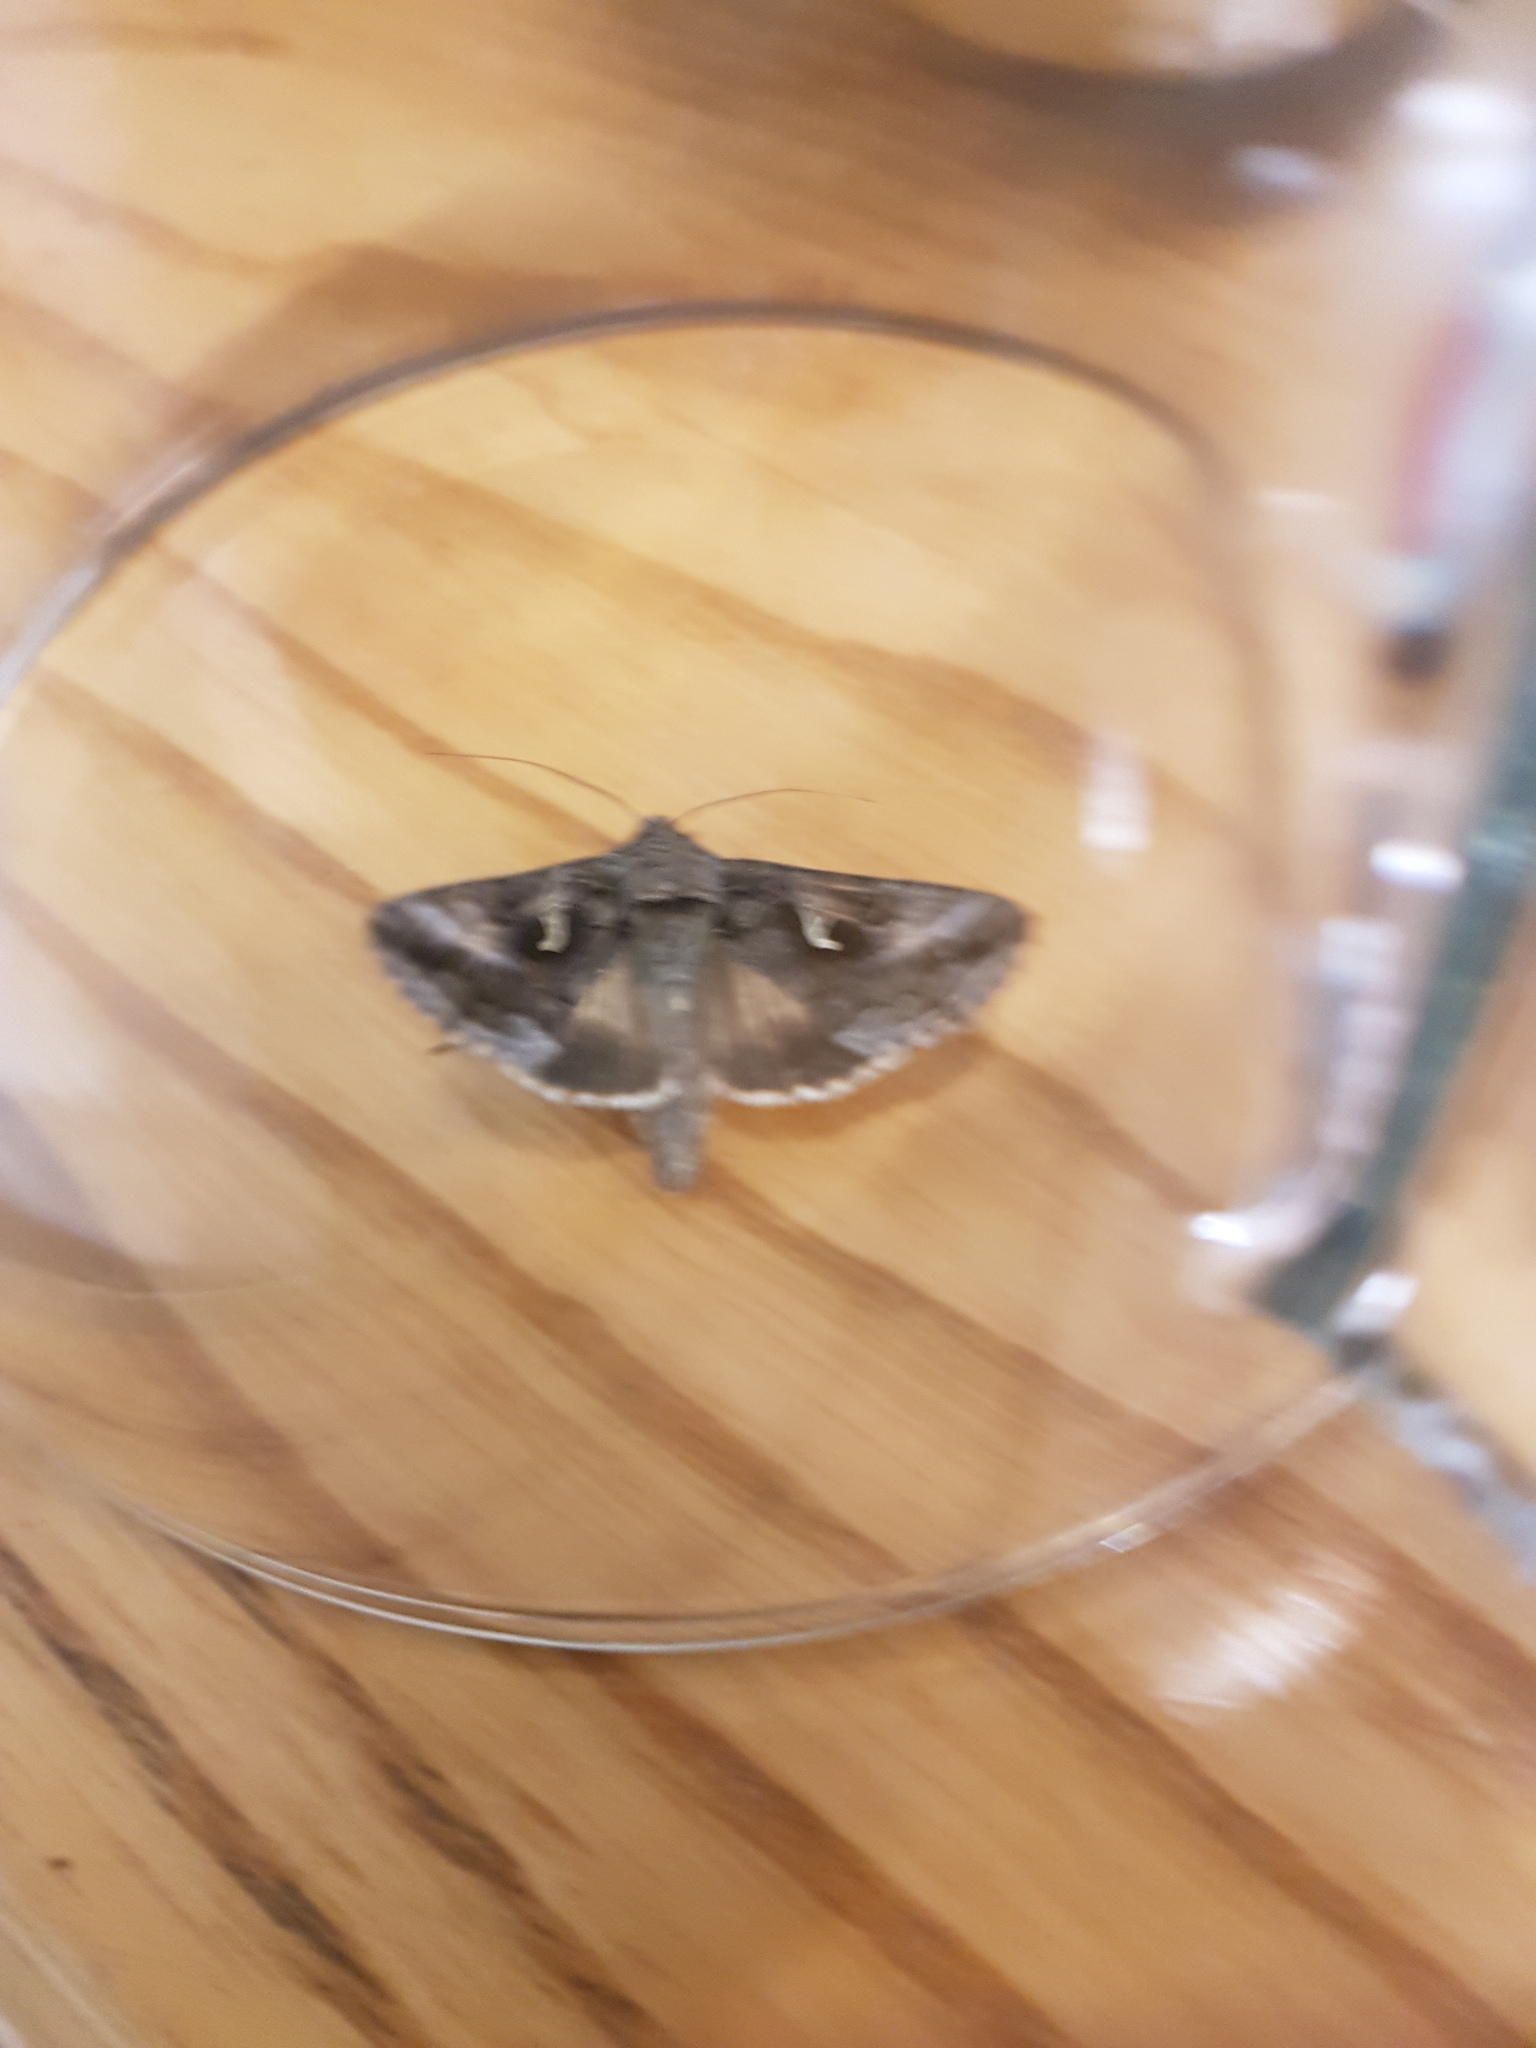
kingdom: Animalia
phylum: Arthropoda
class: Insecta
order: Lepidoptera
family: Noctuidae
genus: Autographa
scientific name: Autographa gamma
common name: Silver y
